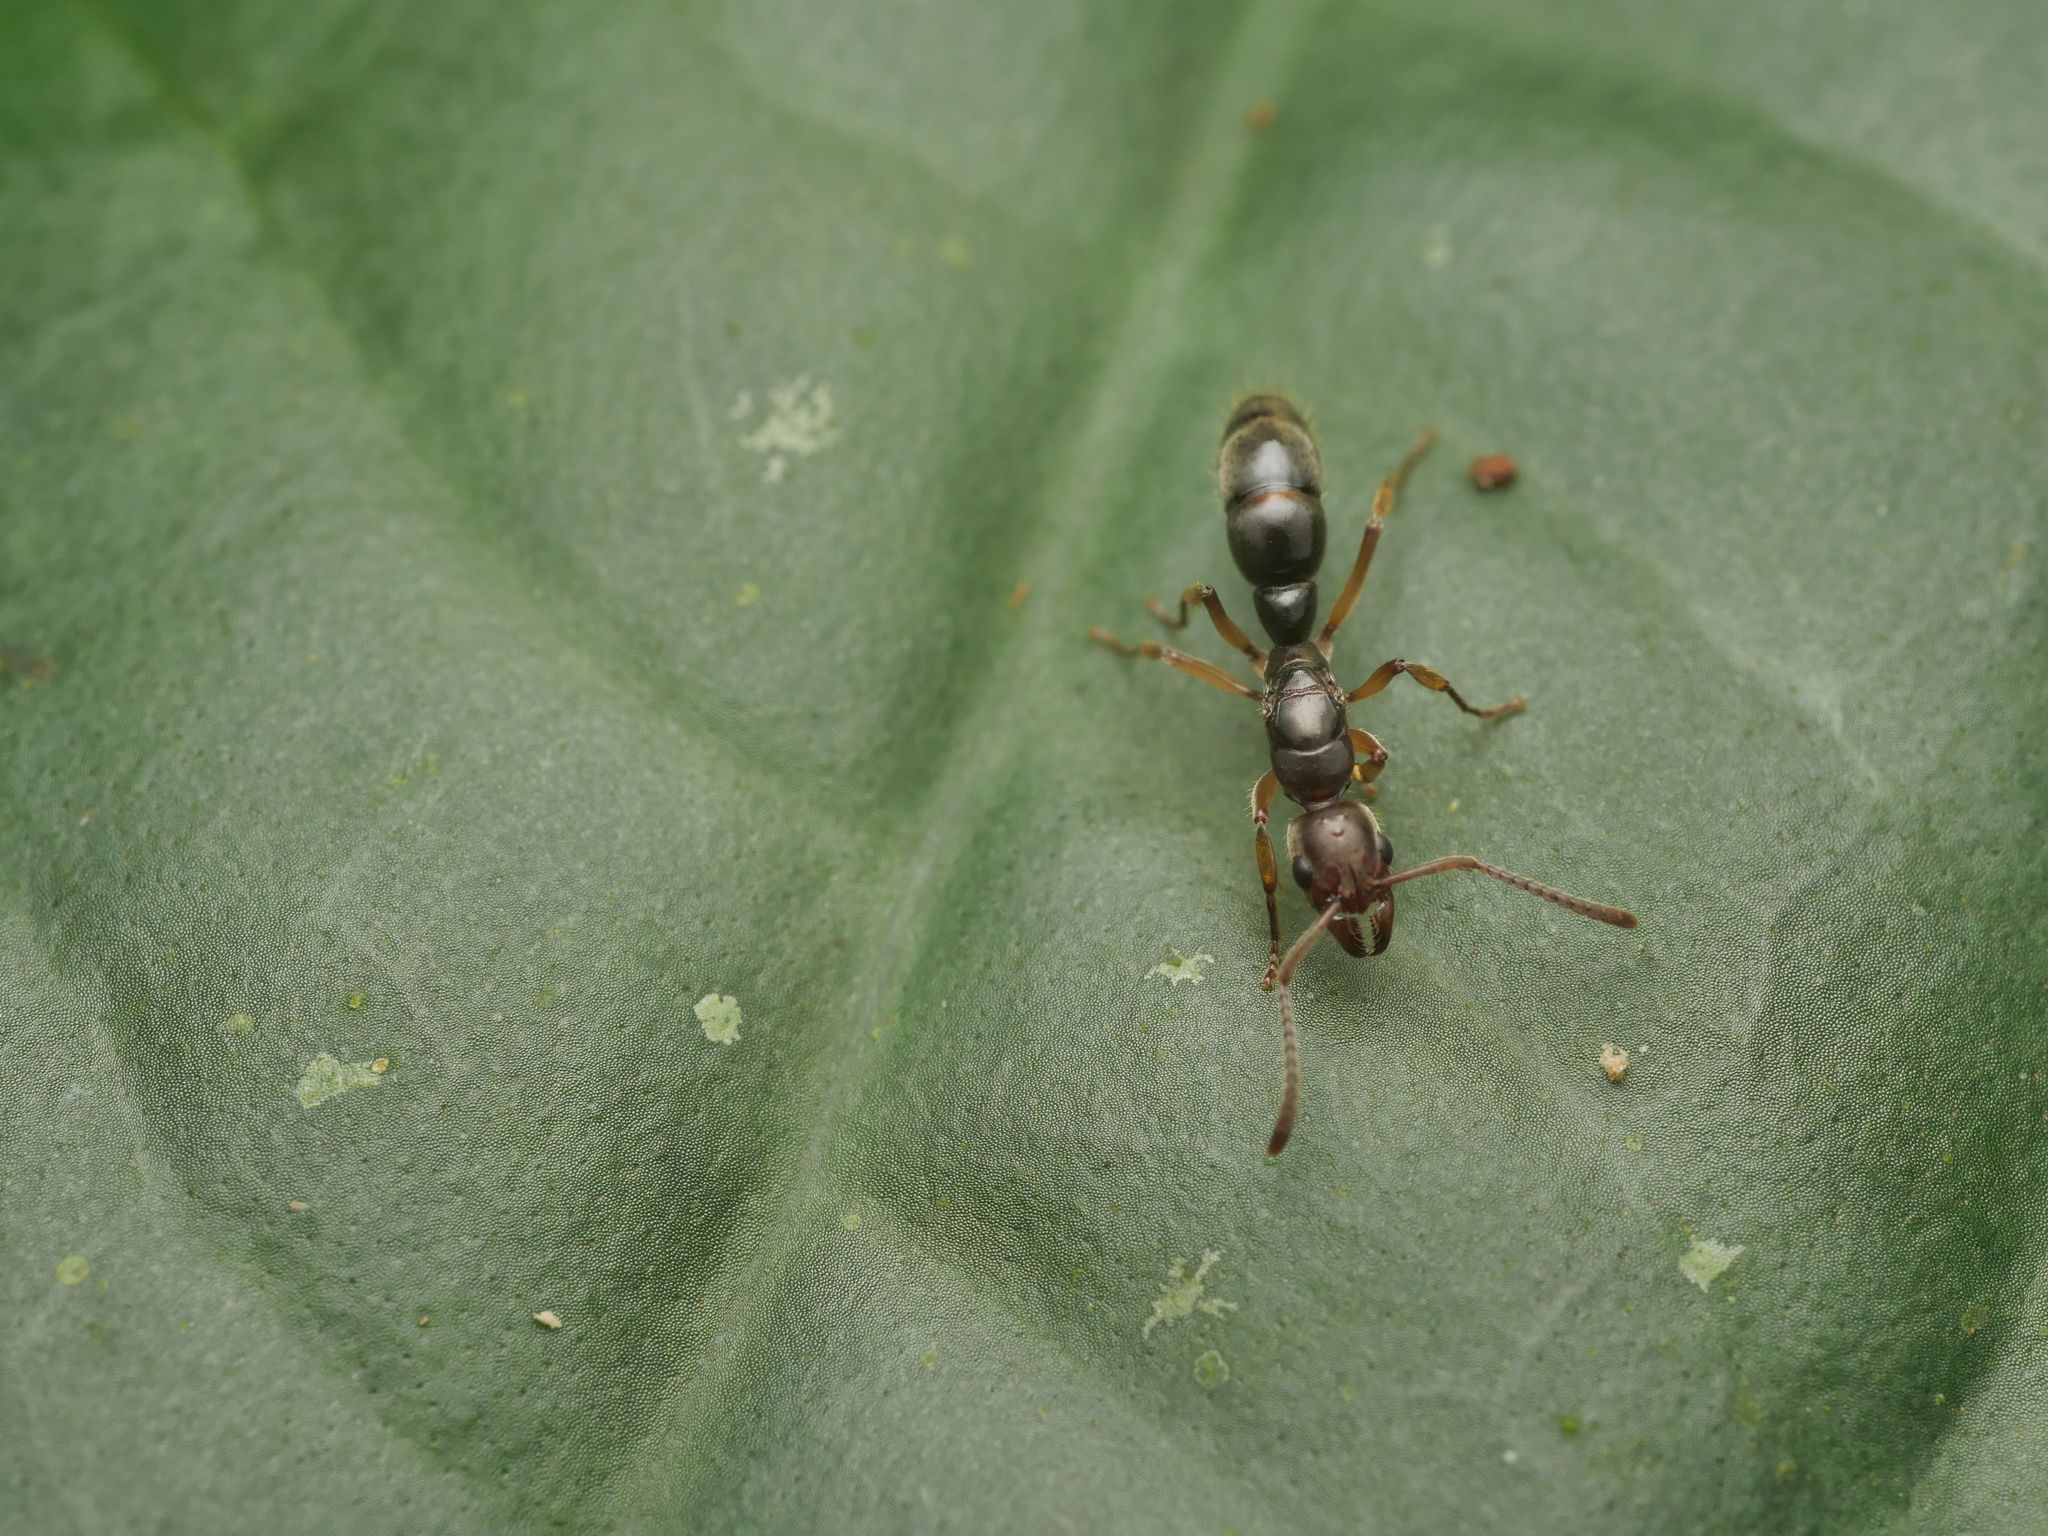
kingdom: Animalia
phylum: Arthropoda
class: Insecta
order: Hymenoptera
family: Formicidae
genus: Pachycondyla
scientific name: Pachycondyla crenata
